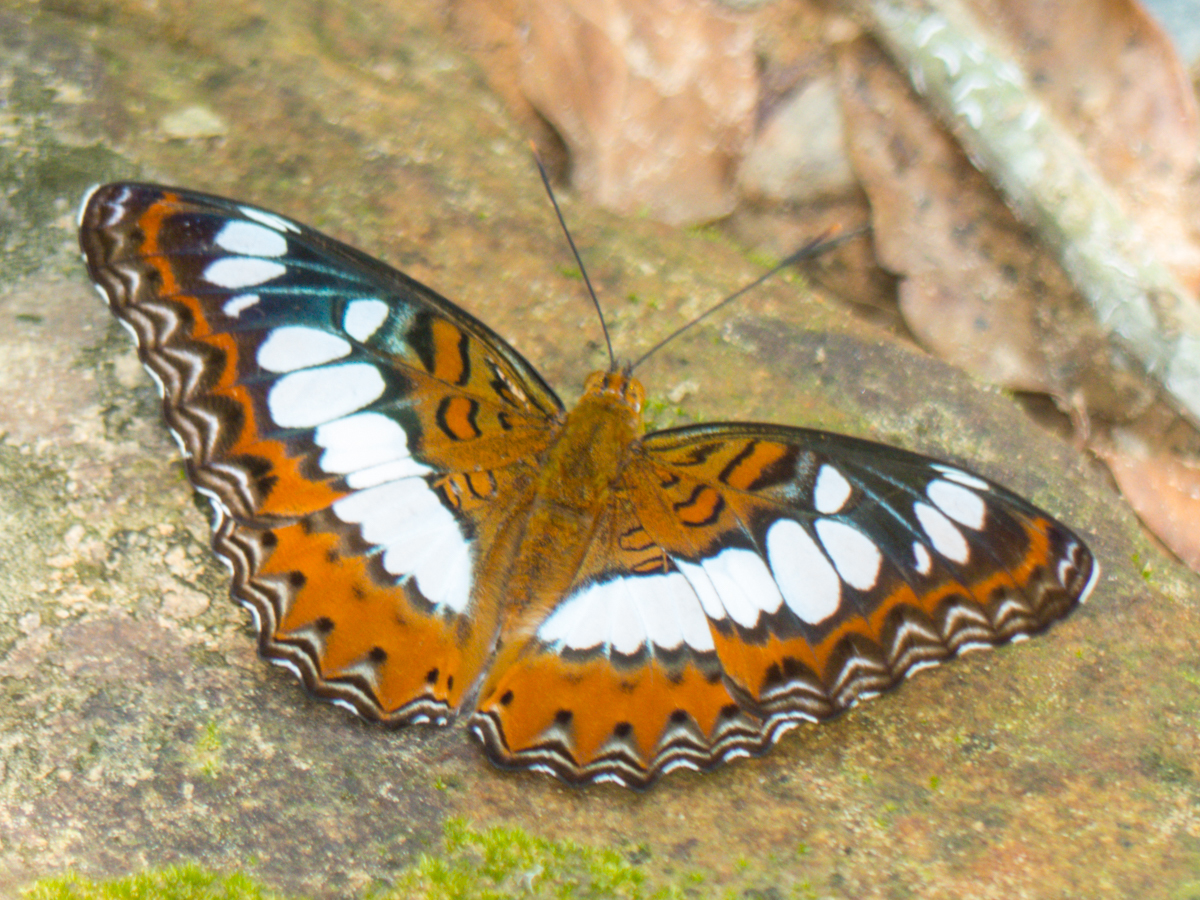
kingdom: Animalia
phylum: Arthropoda
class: Insecta
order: Lepidoptera
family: Nymphalidae
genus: Limenitis
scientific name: Limenitis Moduza procris
